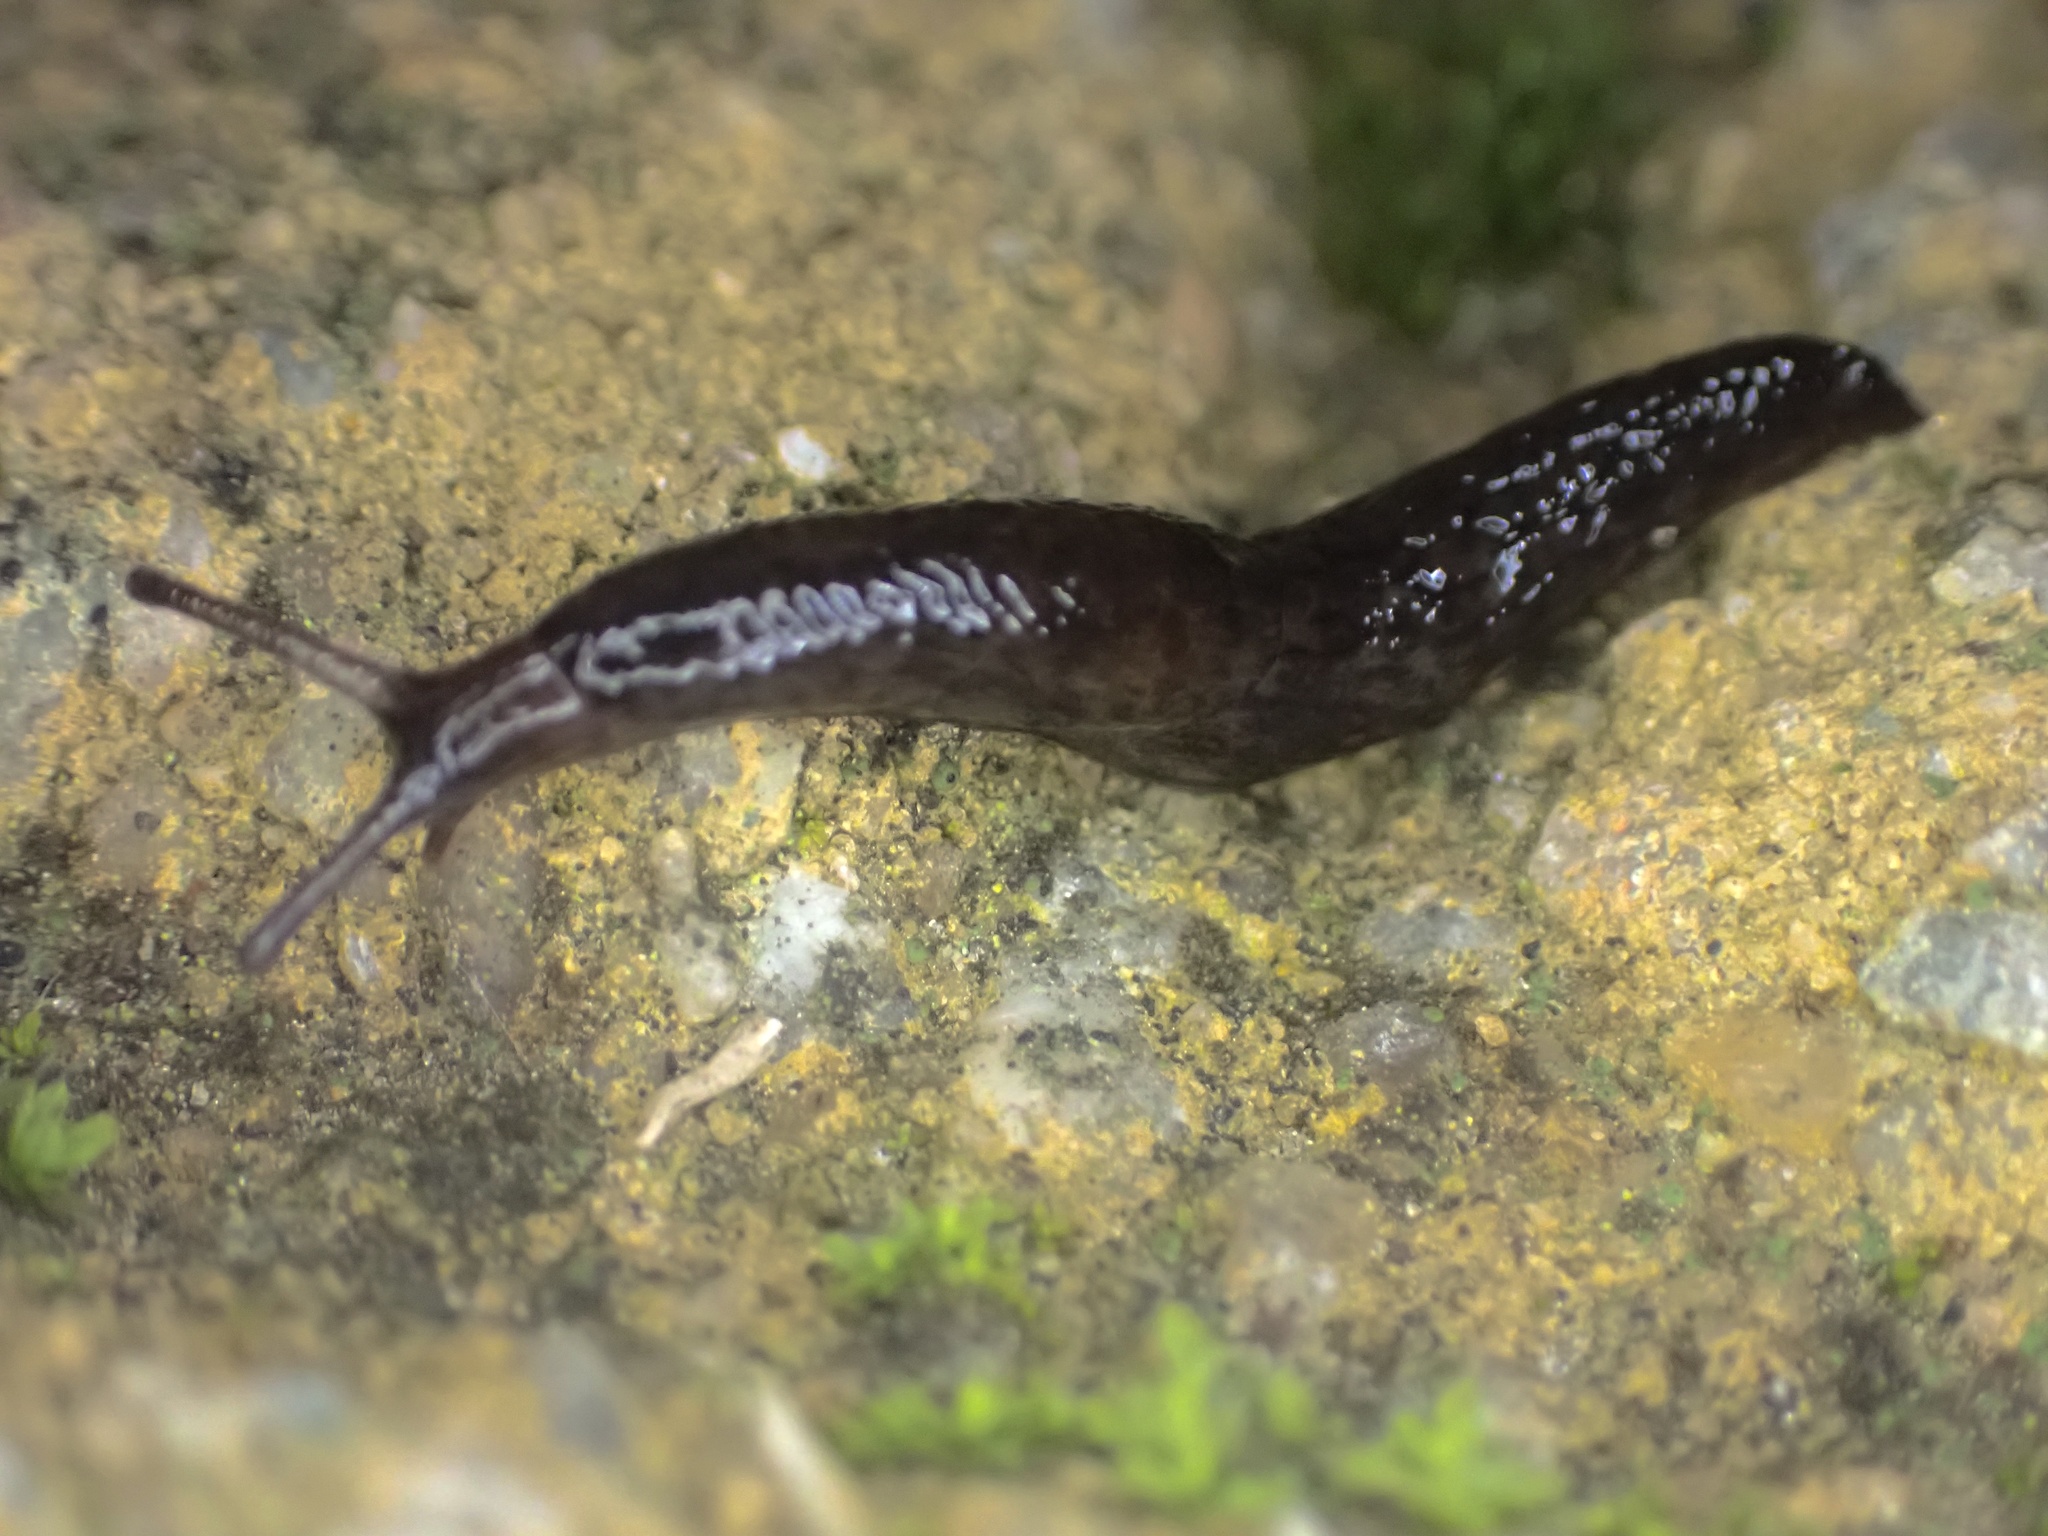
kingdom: Animalia
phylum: Mollusca
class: Gastropoda
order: Stylommatophora
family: Agriolimacidae
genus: Deroceras
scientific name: Deroceras laeve
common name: Marsh slug
